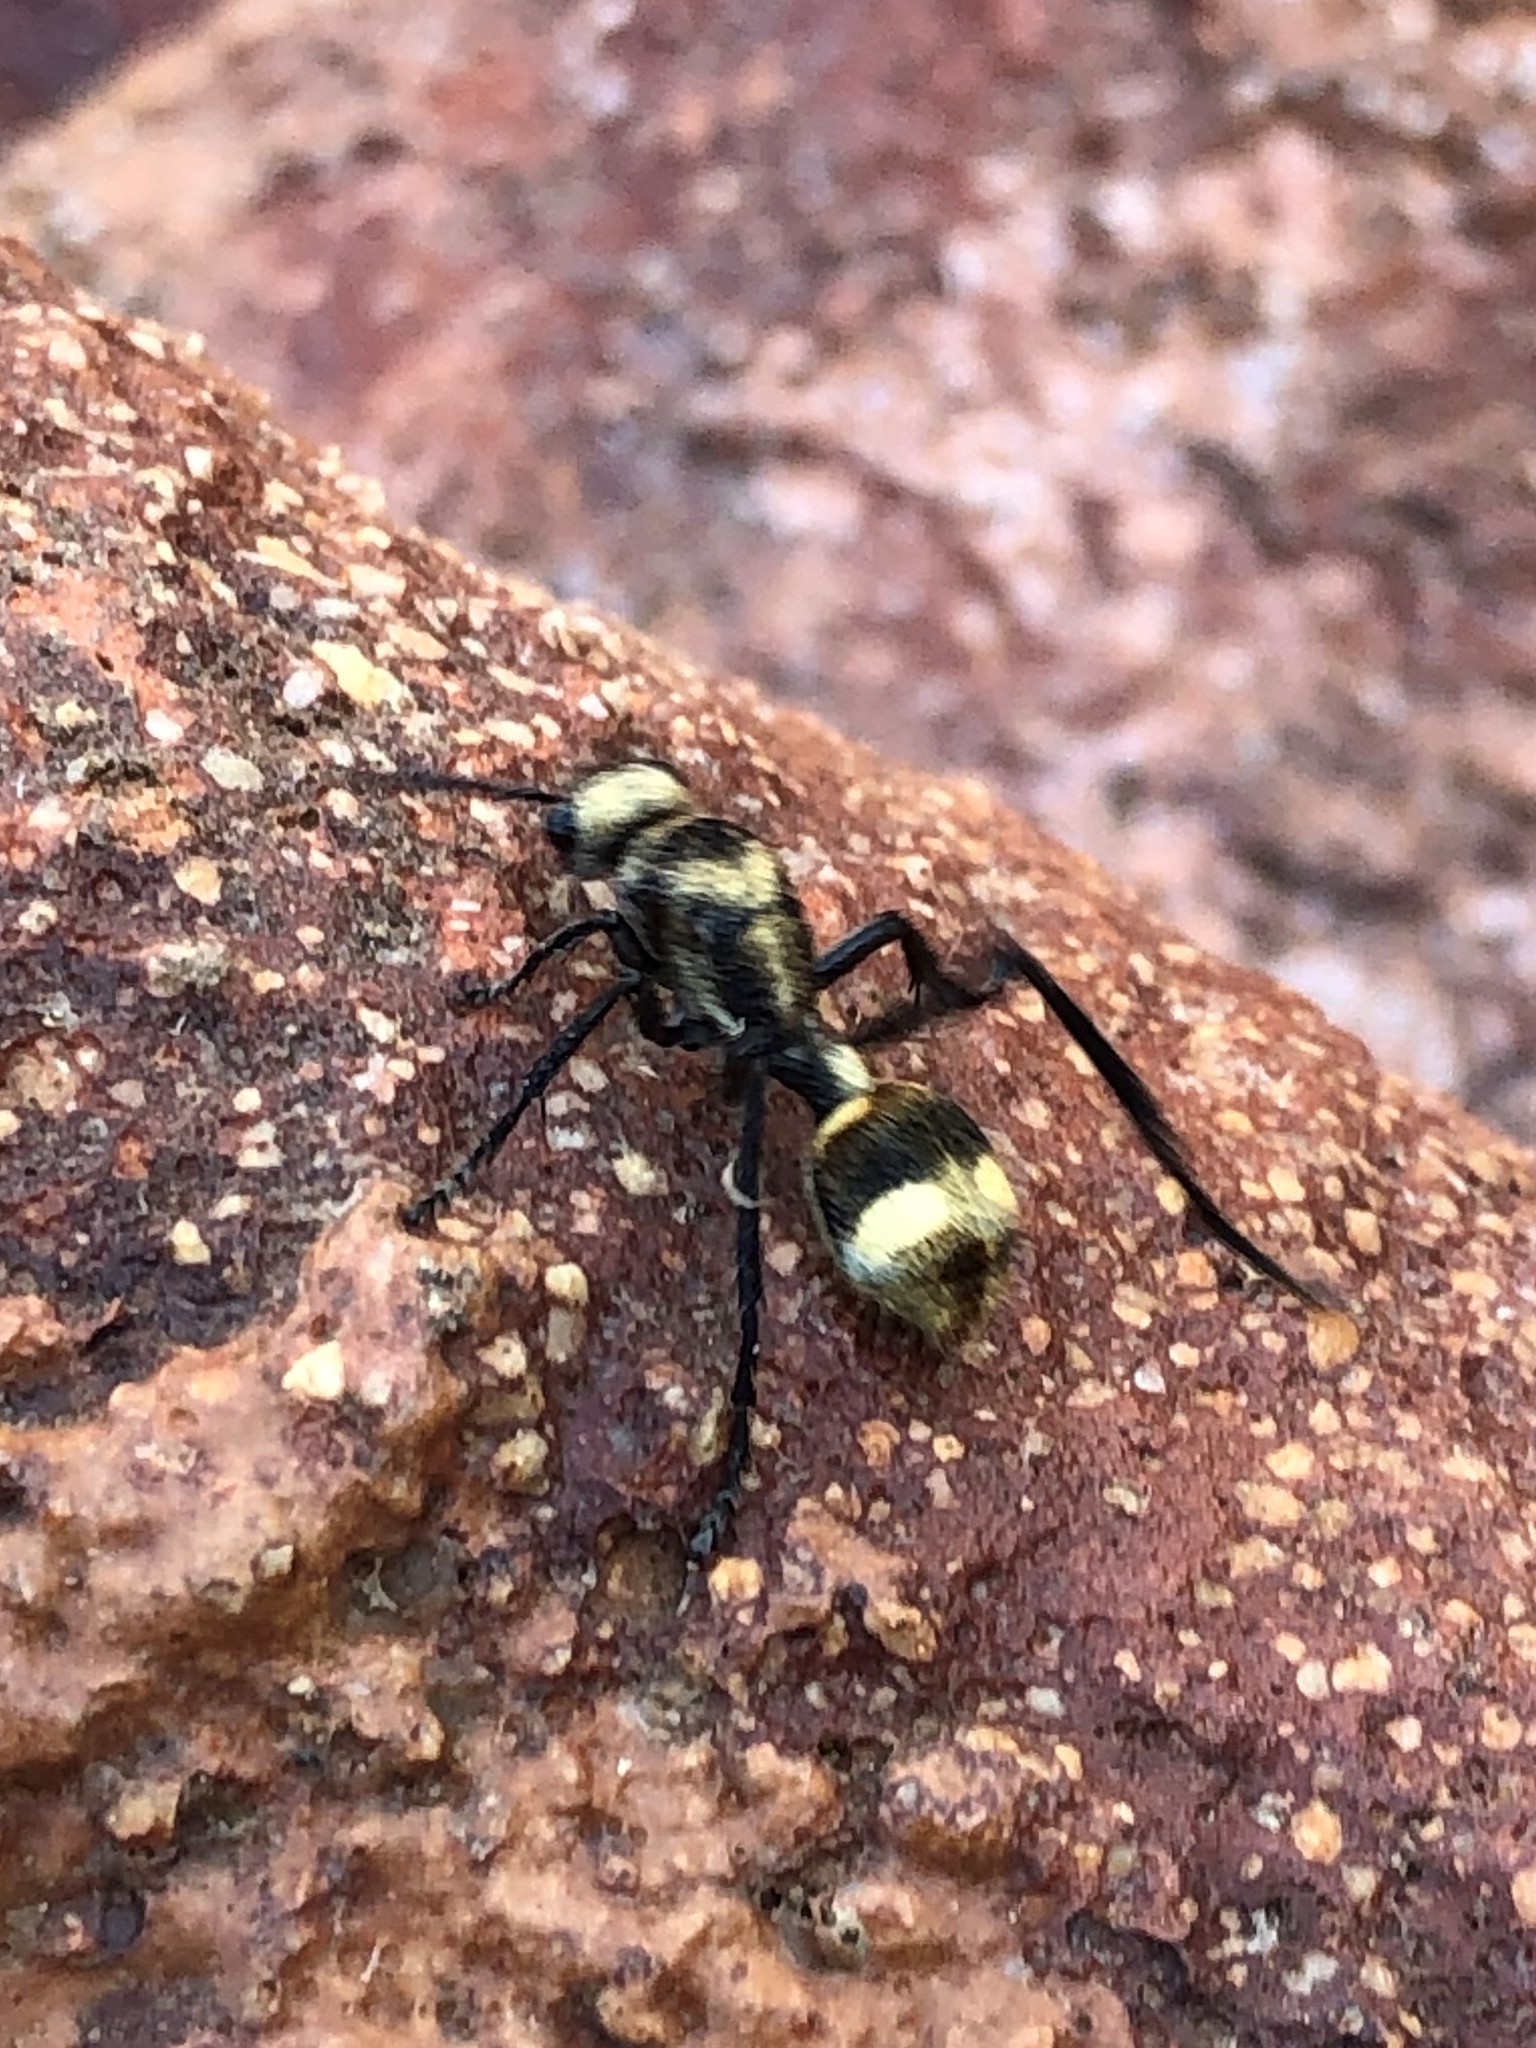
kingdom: Animalia
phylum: Arthropoda
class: Insecta
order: Hymenoptera
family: Mutillidae
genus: Dasymutilla
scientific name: Dasymutilla paradoxa
